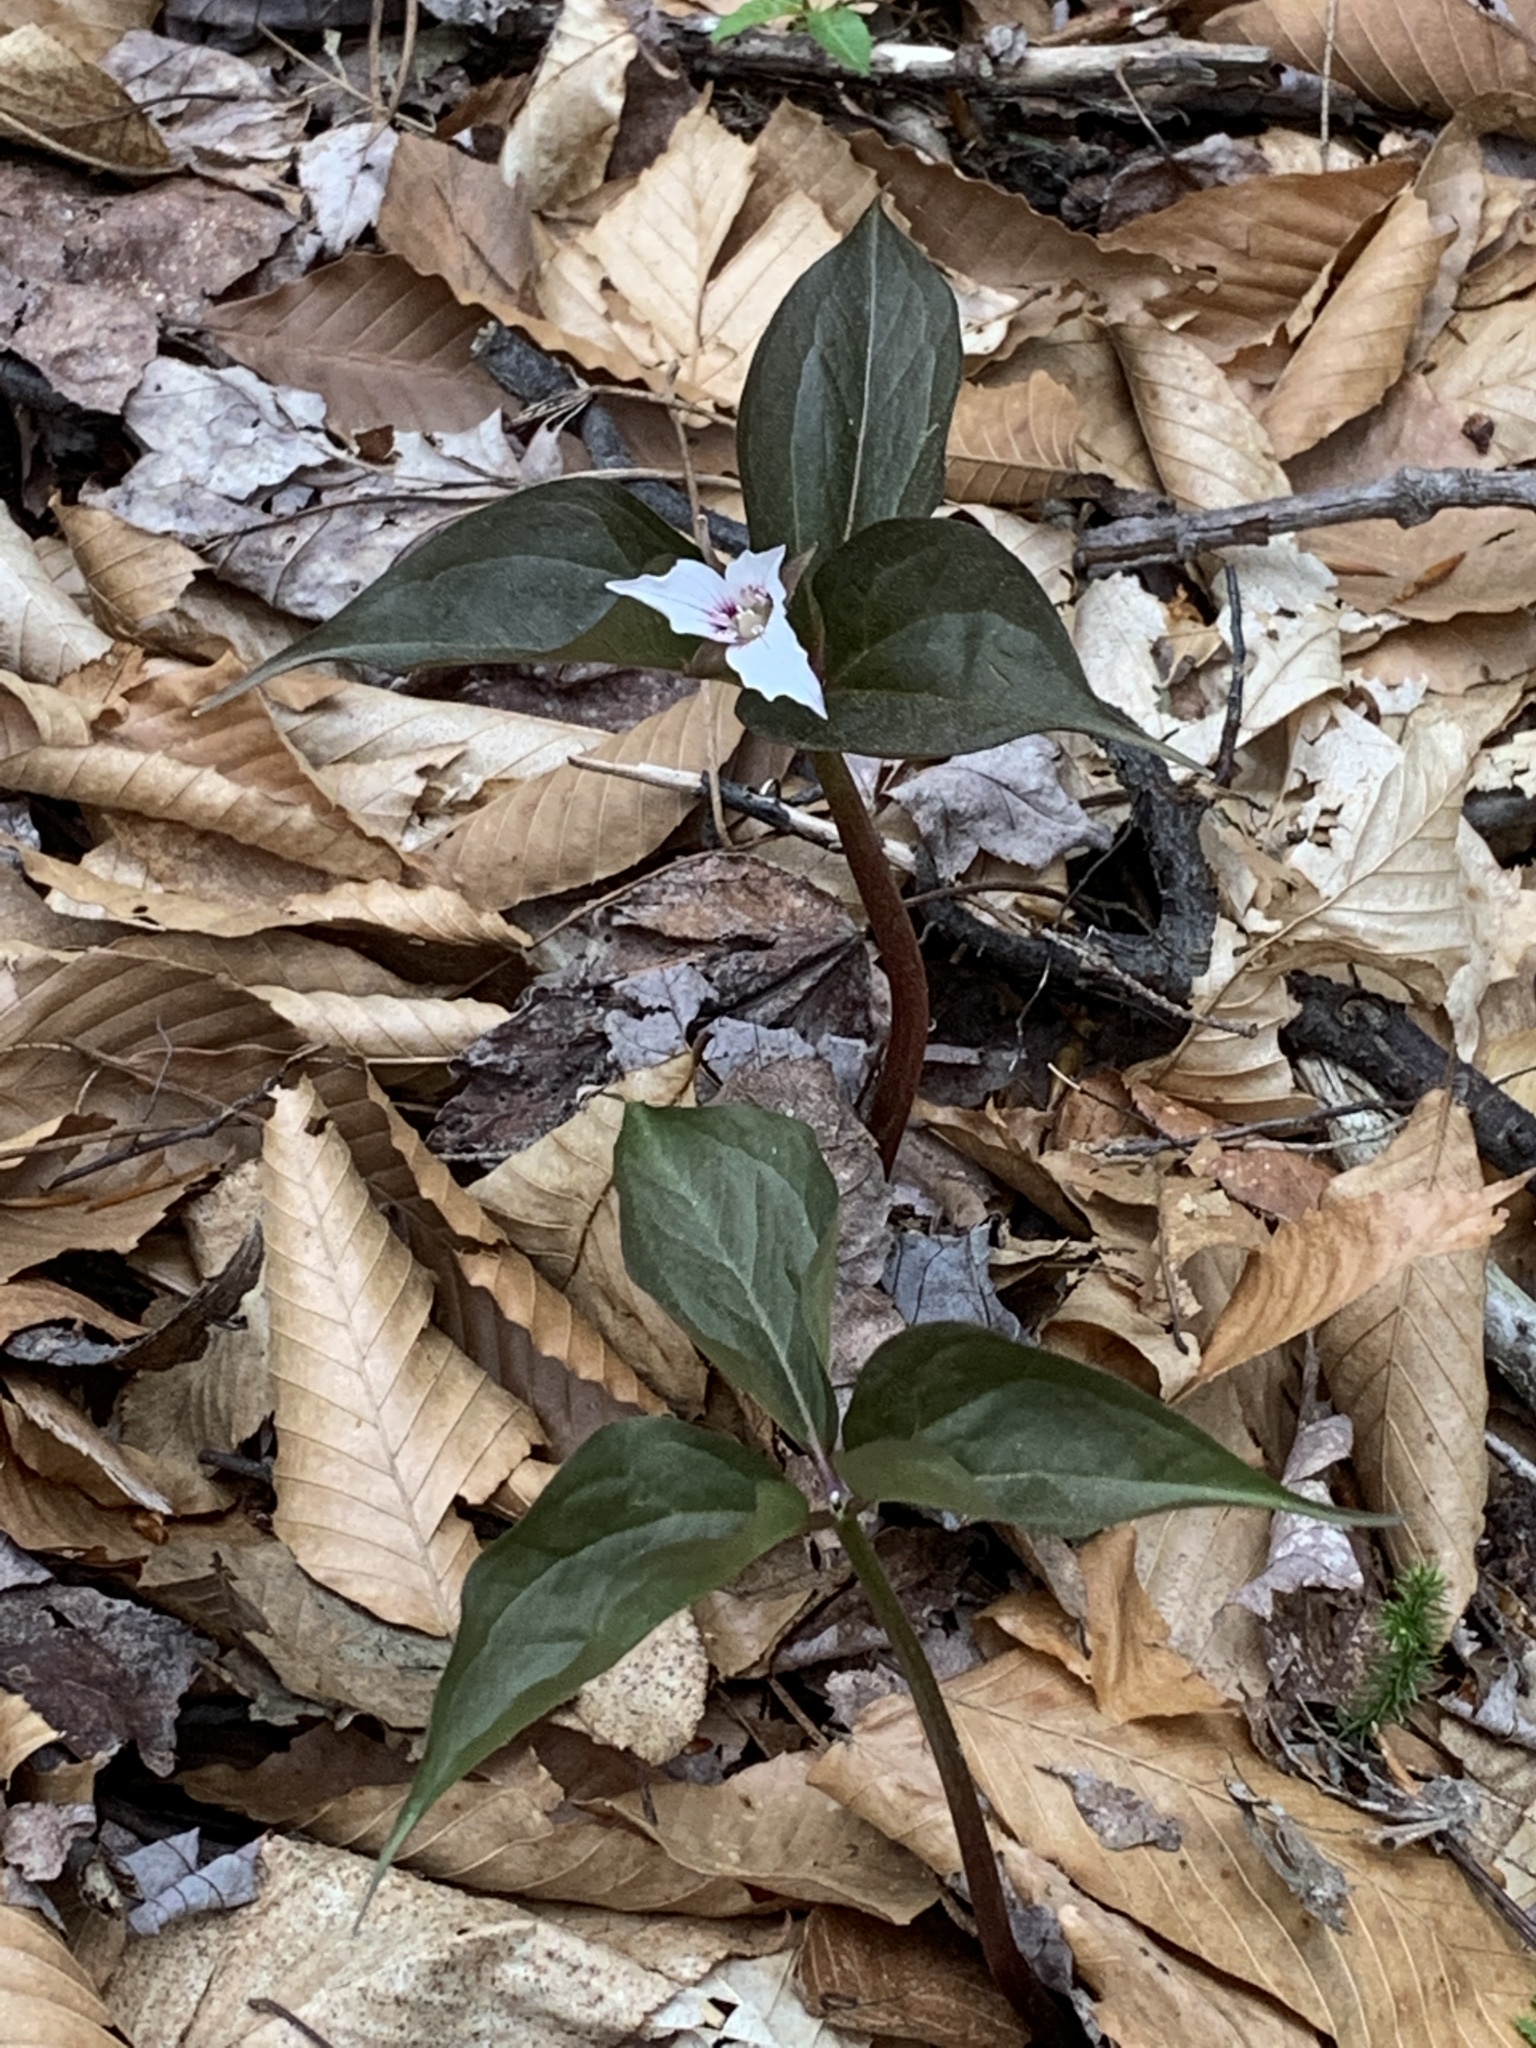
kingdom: Plantae
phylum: Tracheophyta
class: Liliopsida
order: Liliales
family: Melanthiaceae
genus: Trillium
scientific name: Trillium undulatum
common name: Paint trillium
